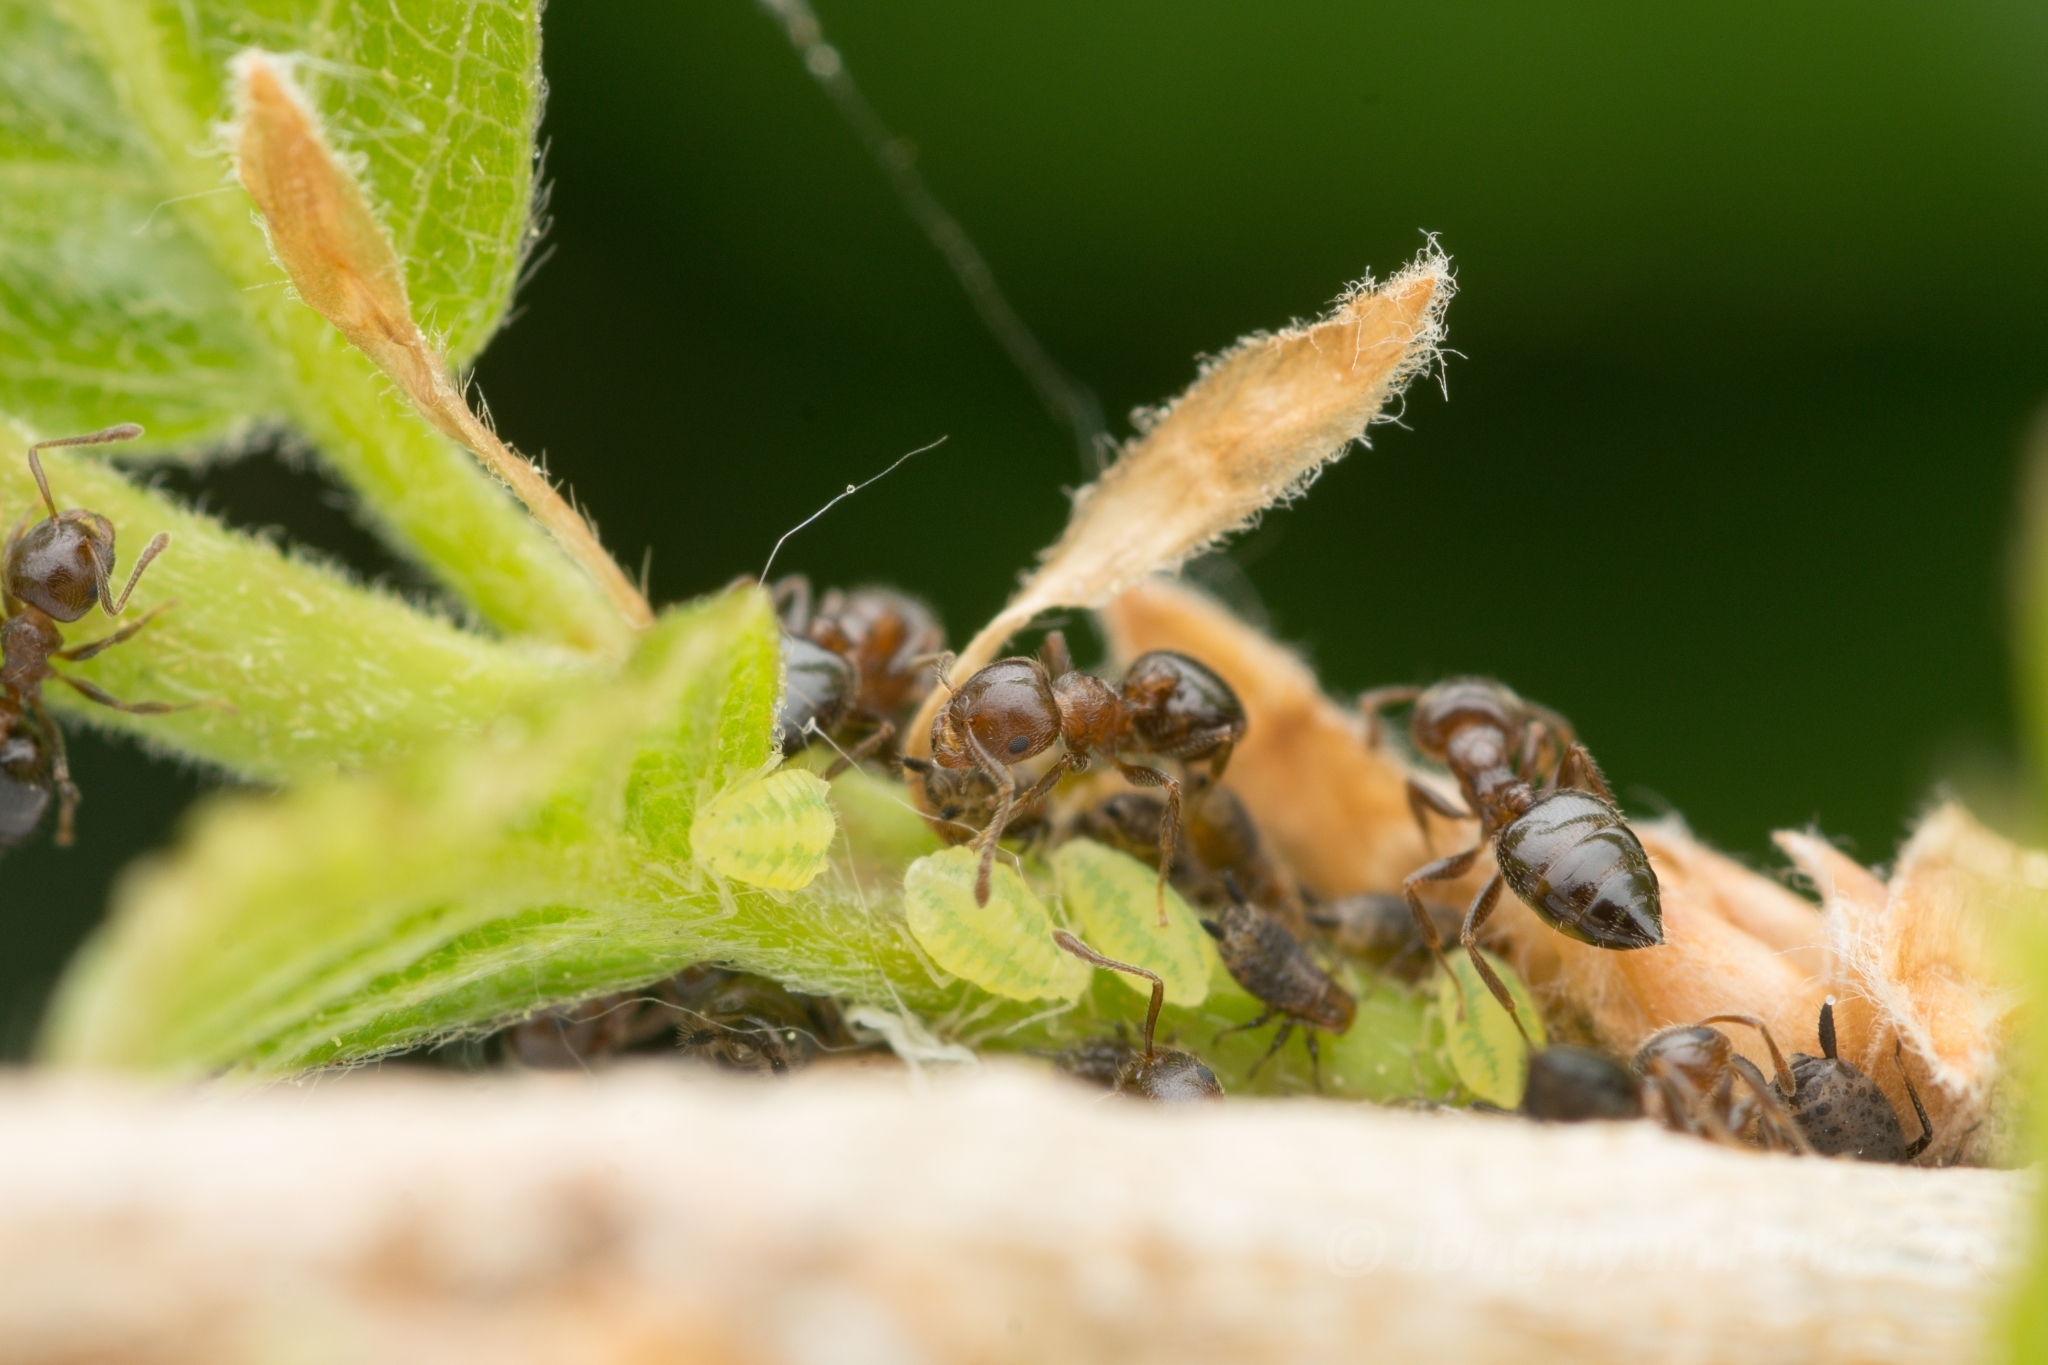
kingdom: Animalia
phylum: Arthropoda
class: Insecta
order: Hymenoptera
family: Formicidae
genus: Crematogaster
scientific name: Crematogaster matsumurai
